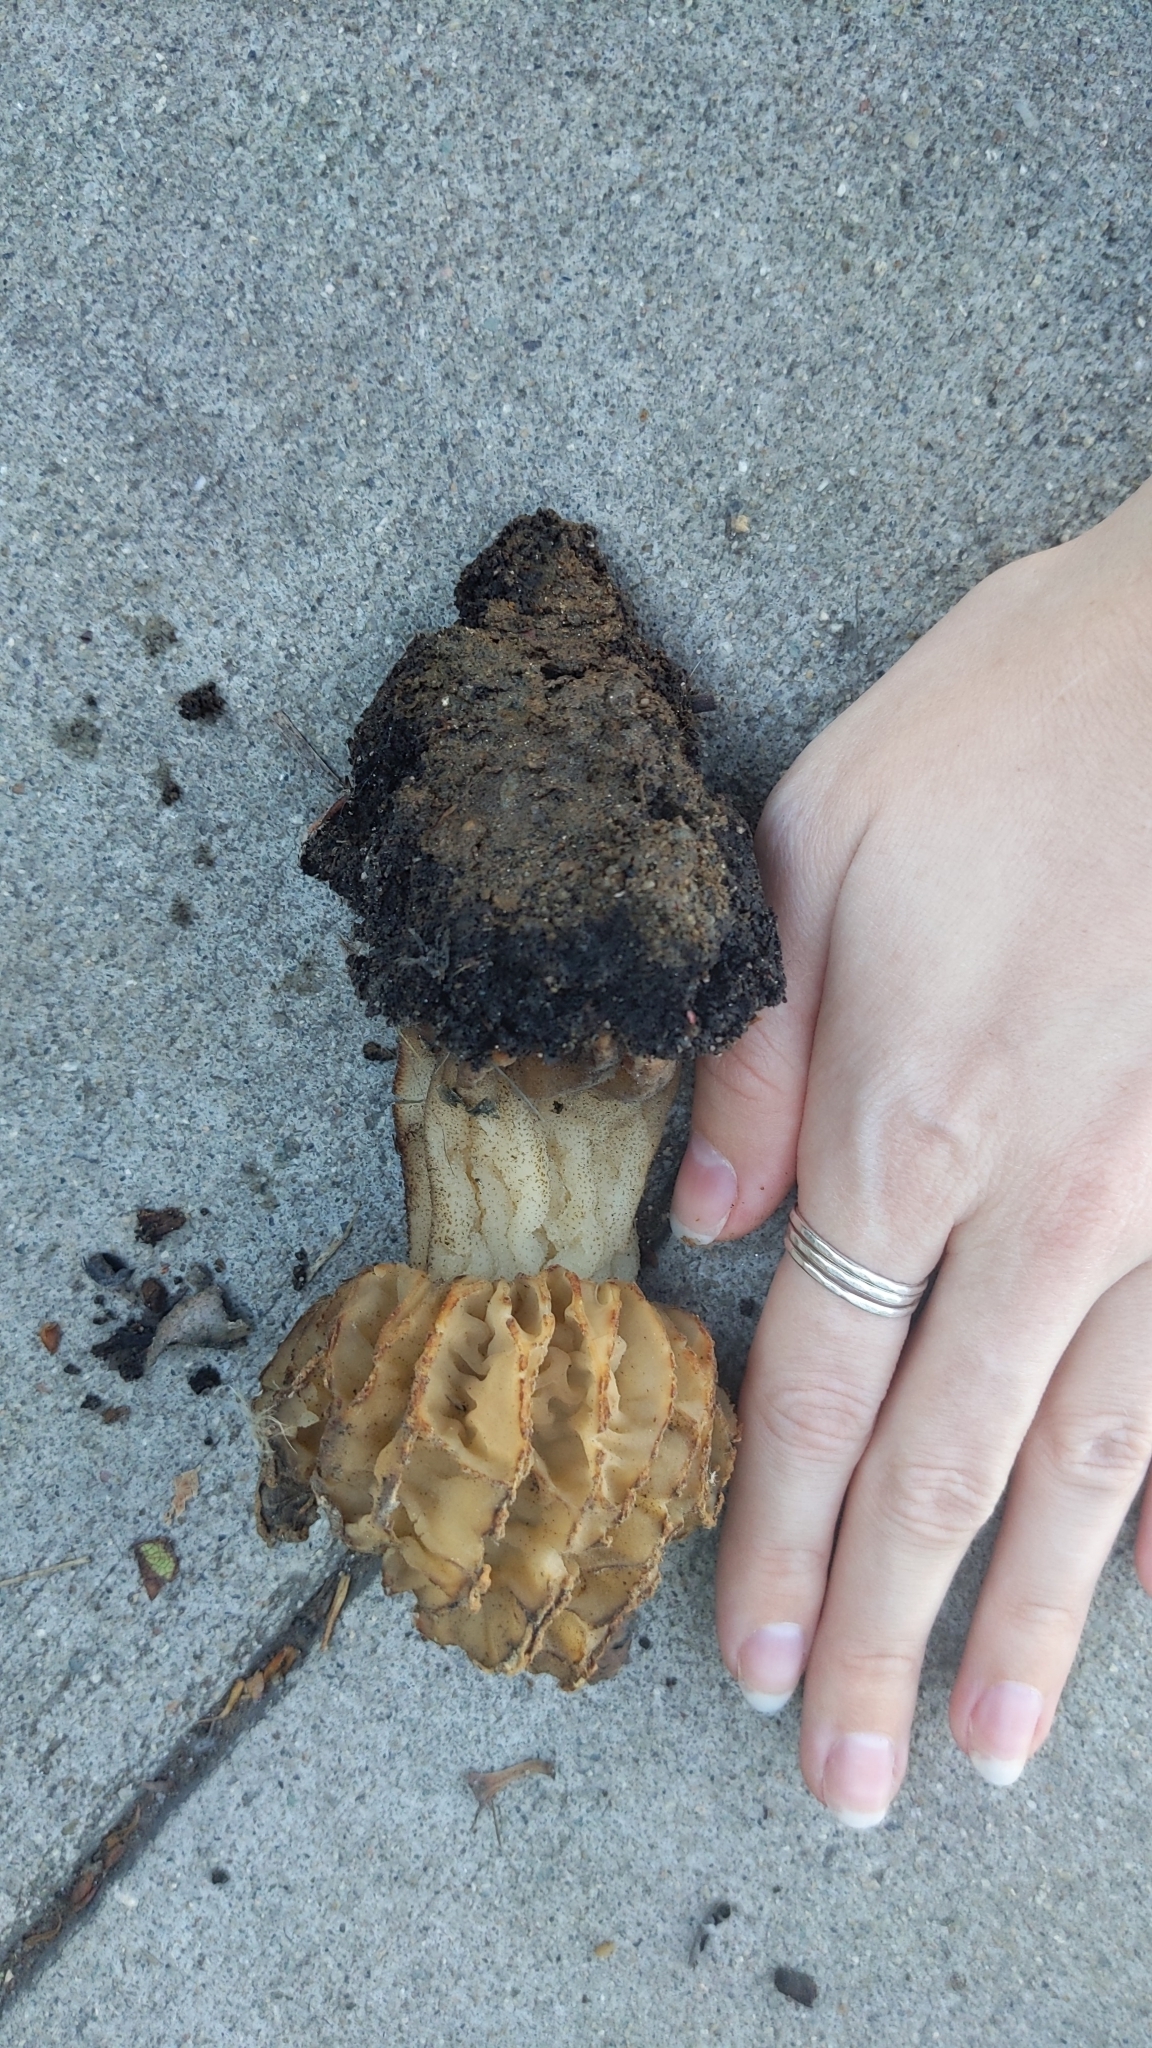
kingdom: Fungi
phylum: Ascomycota
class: Pezizomycetes
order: Pezizales
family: Morchellaceae
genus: Morchella
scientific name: Morchella rufobrunnea
